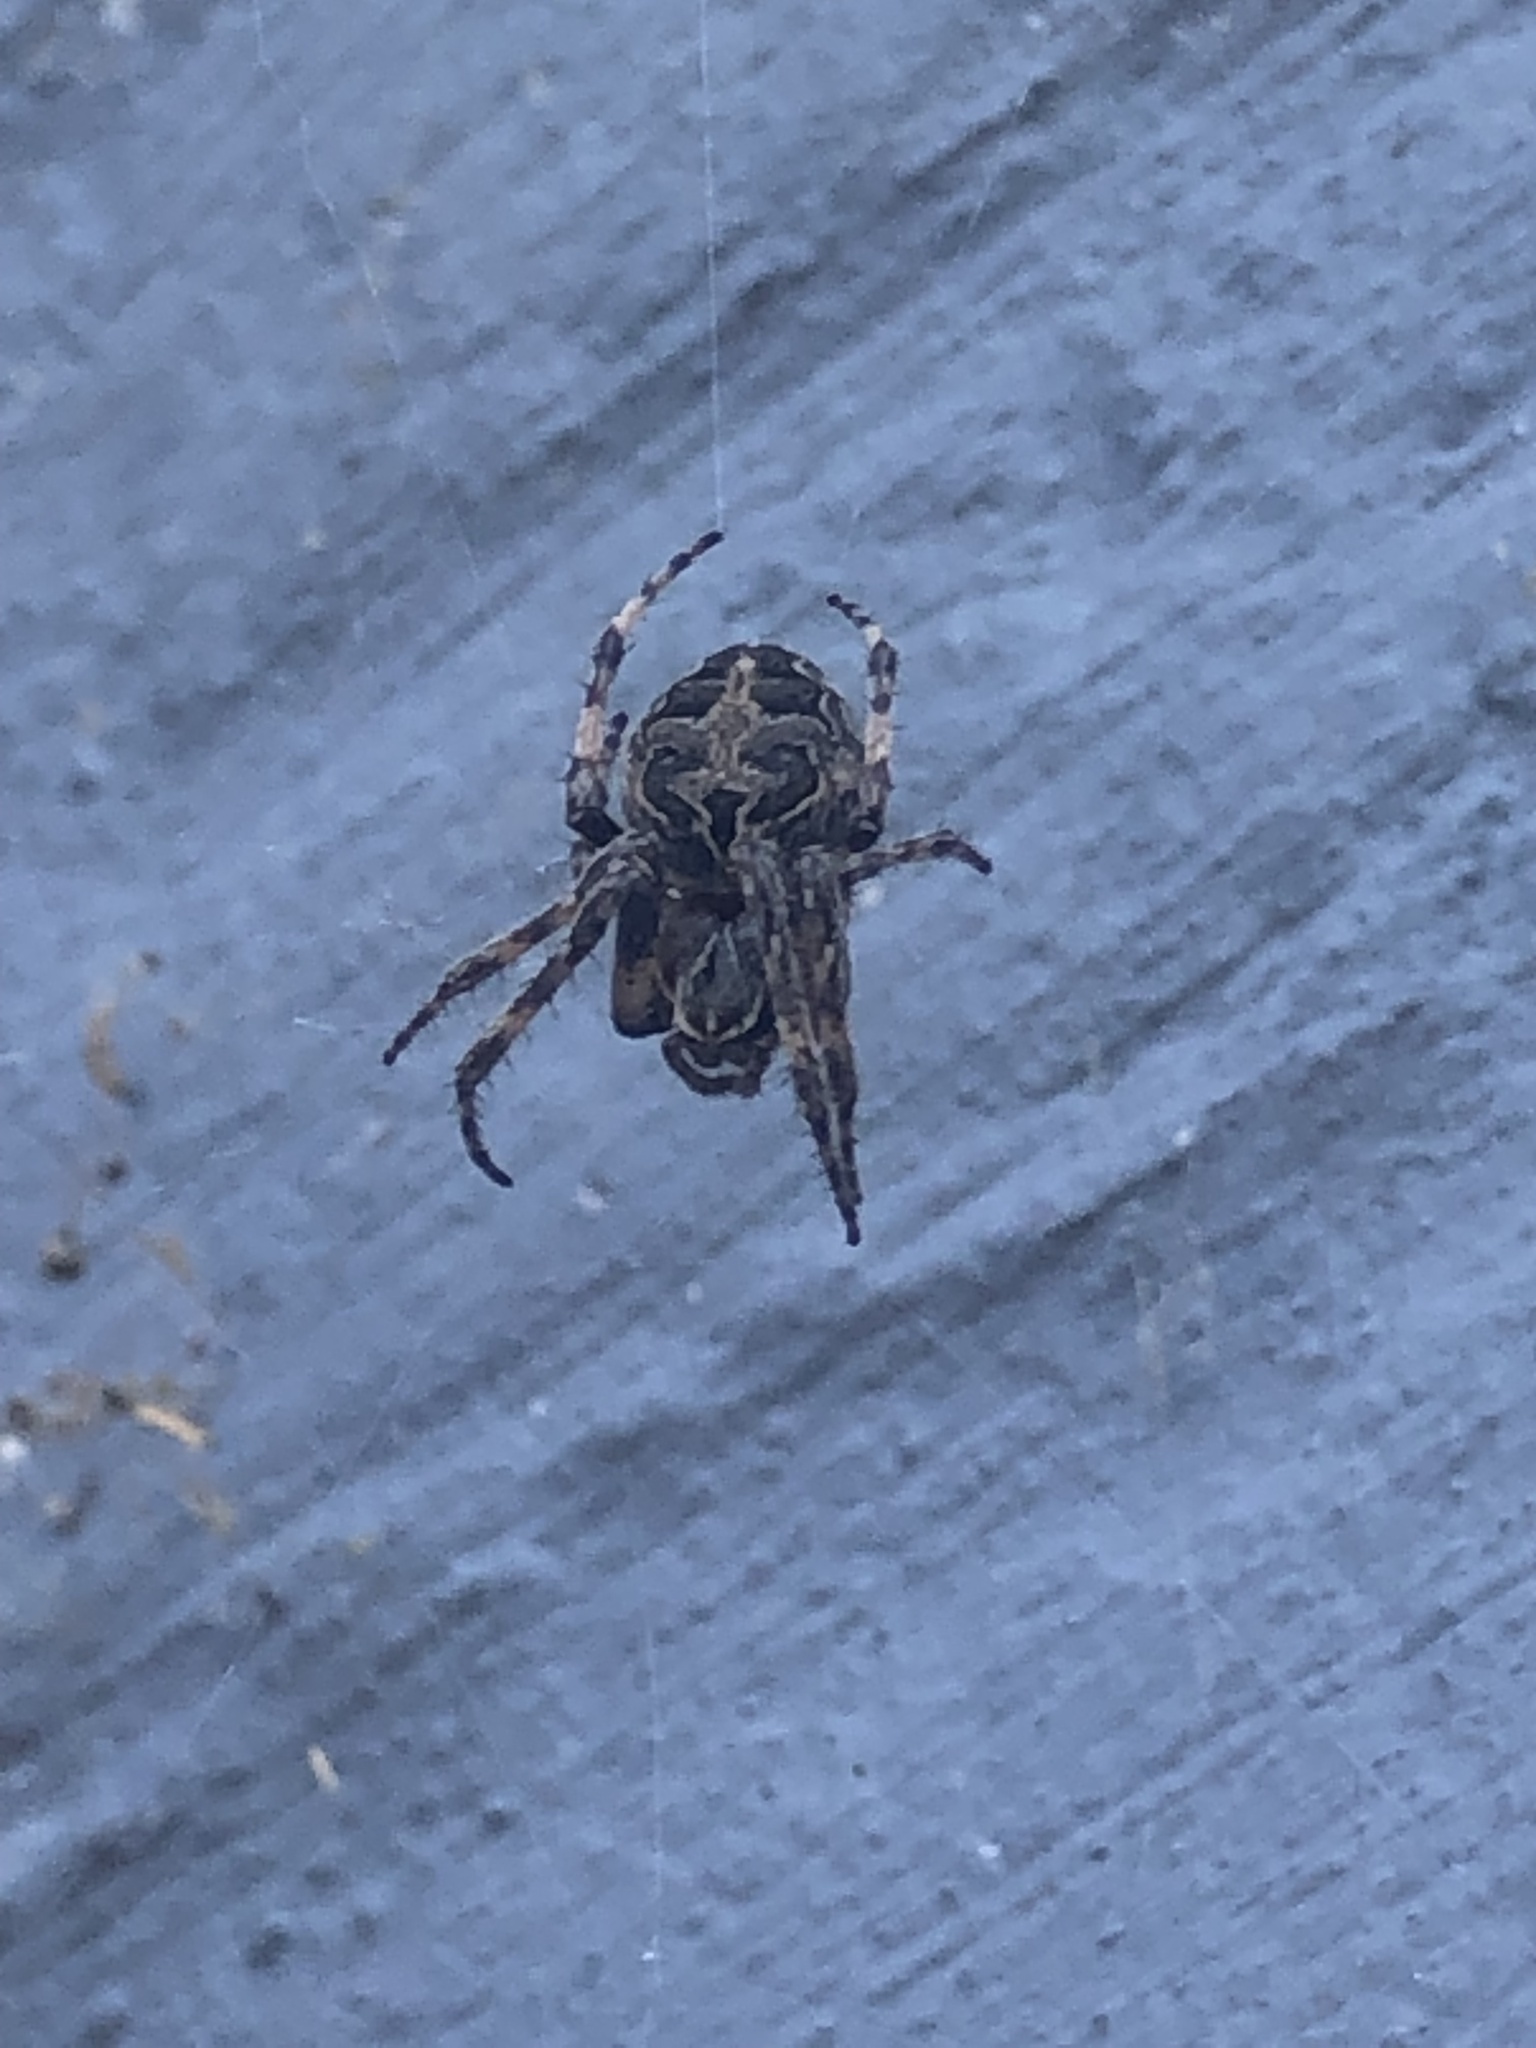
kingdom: Animalia
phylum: Arthropoda
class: Arachnida
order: Araneae
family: Araneidae
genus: Larinioides
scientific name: Larinioides sclopetarius
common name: Bridge orbweaver
